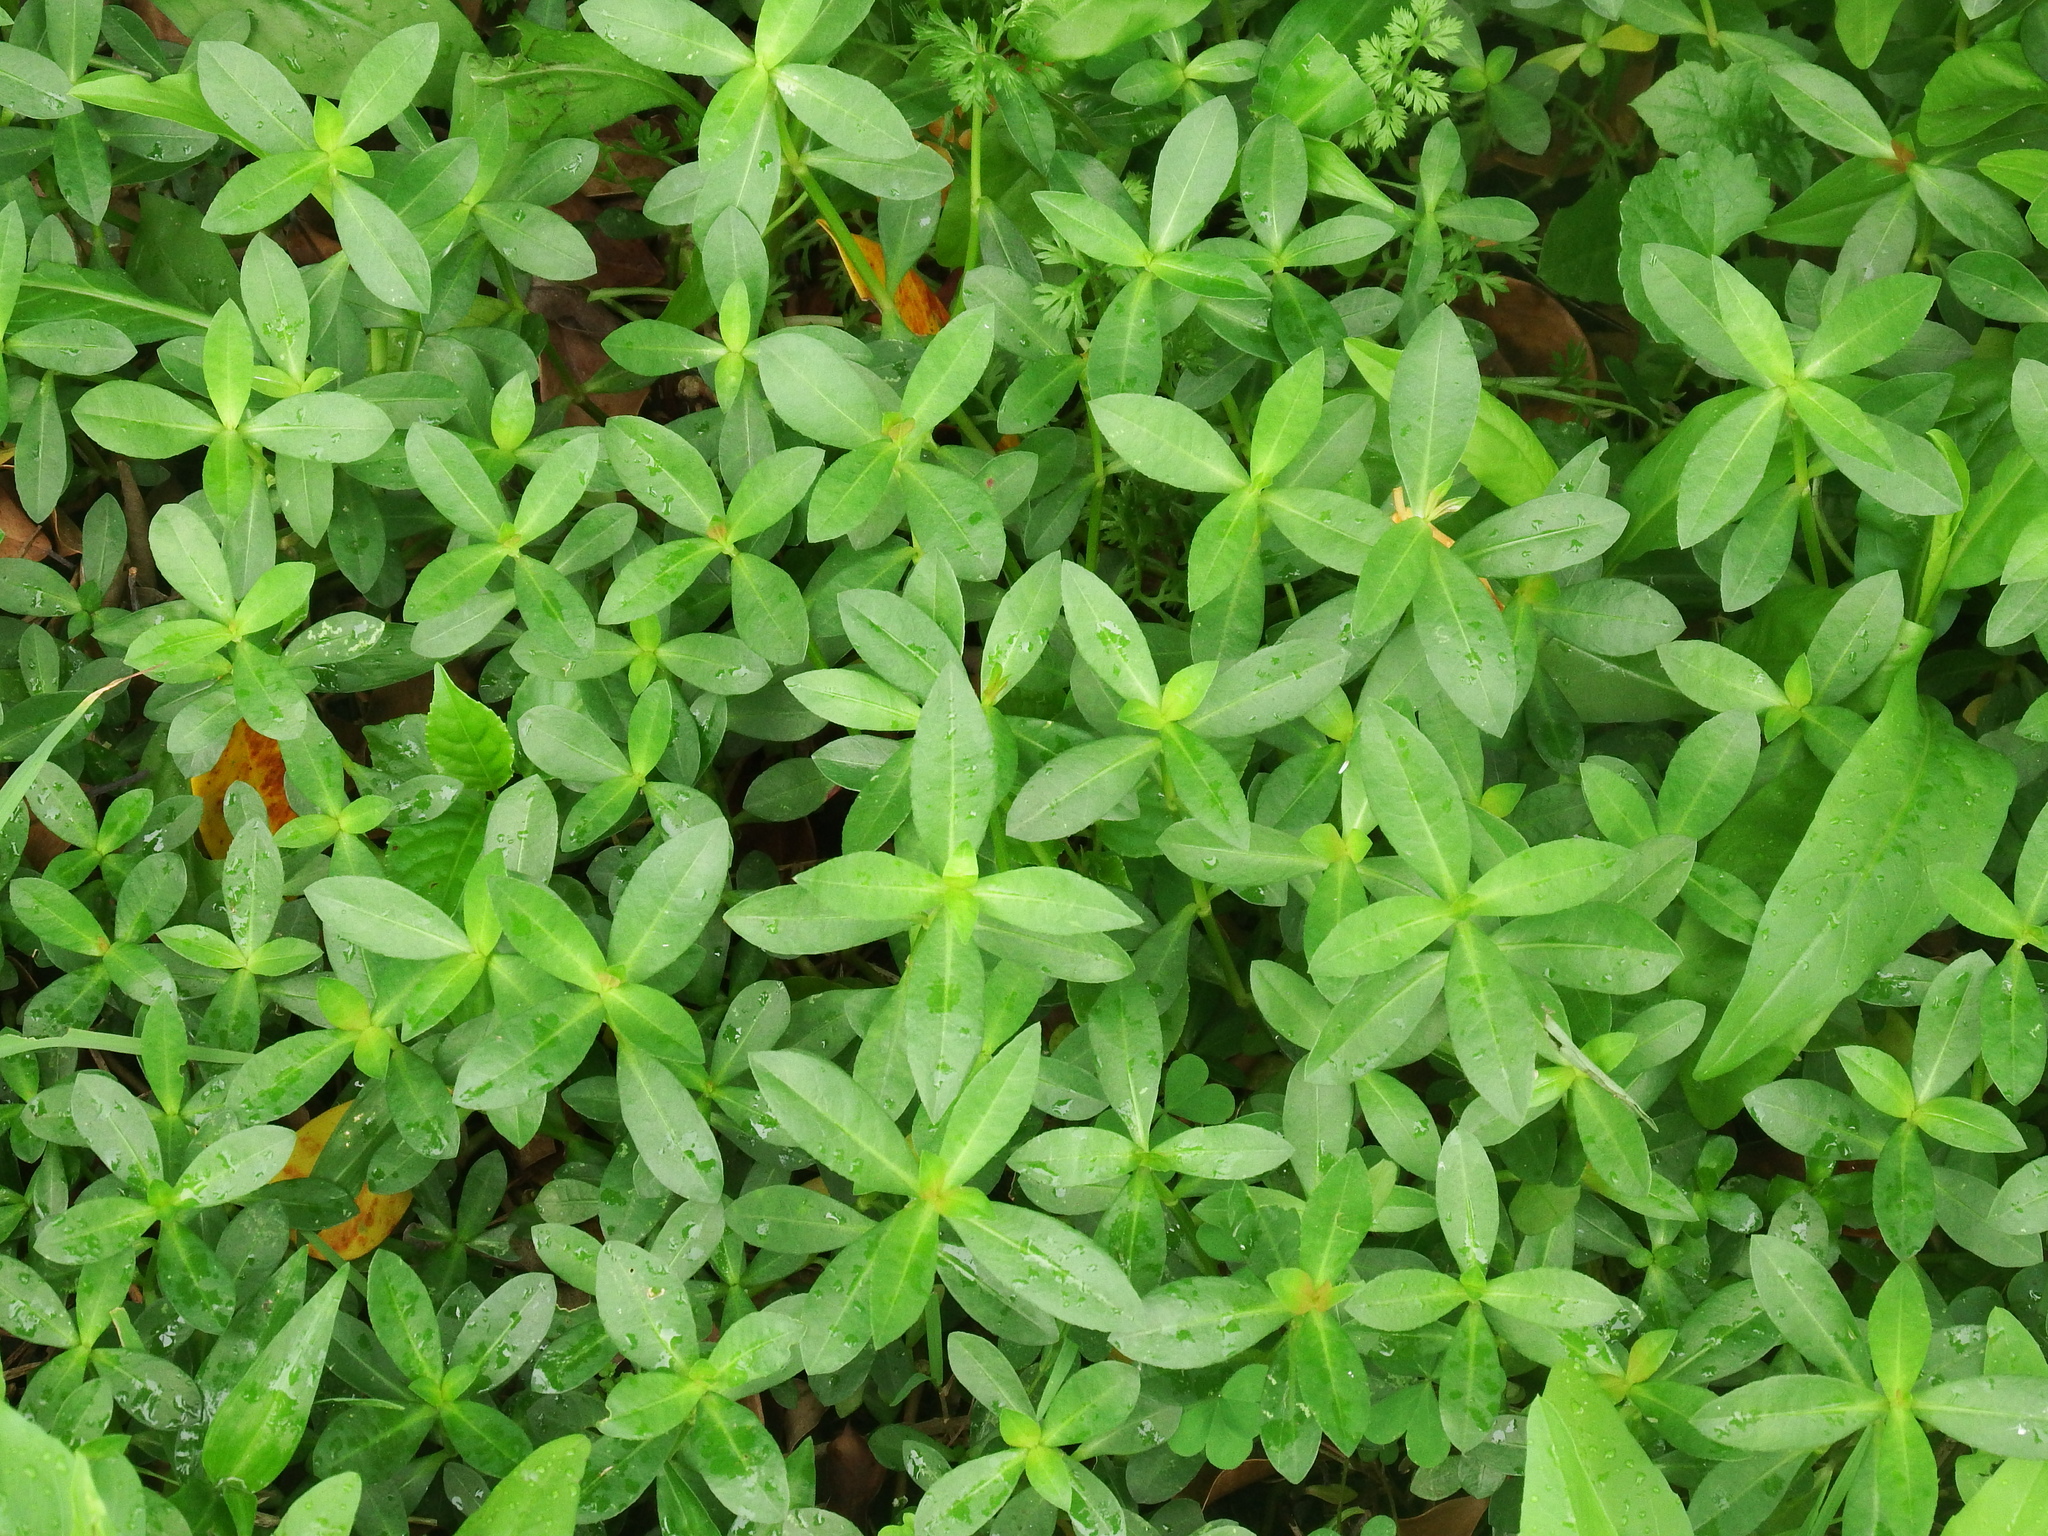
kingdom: Plantae
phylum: Tracheophyta
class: Magnoliopsida
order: Caryophyllales
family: Amaranthaceae
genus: Alternanthera
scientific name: Alternanthera philoxeroides
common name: Alligatorweed
